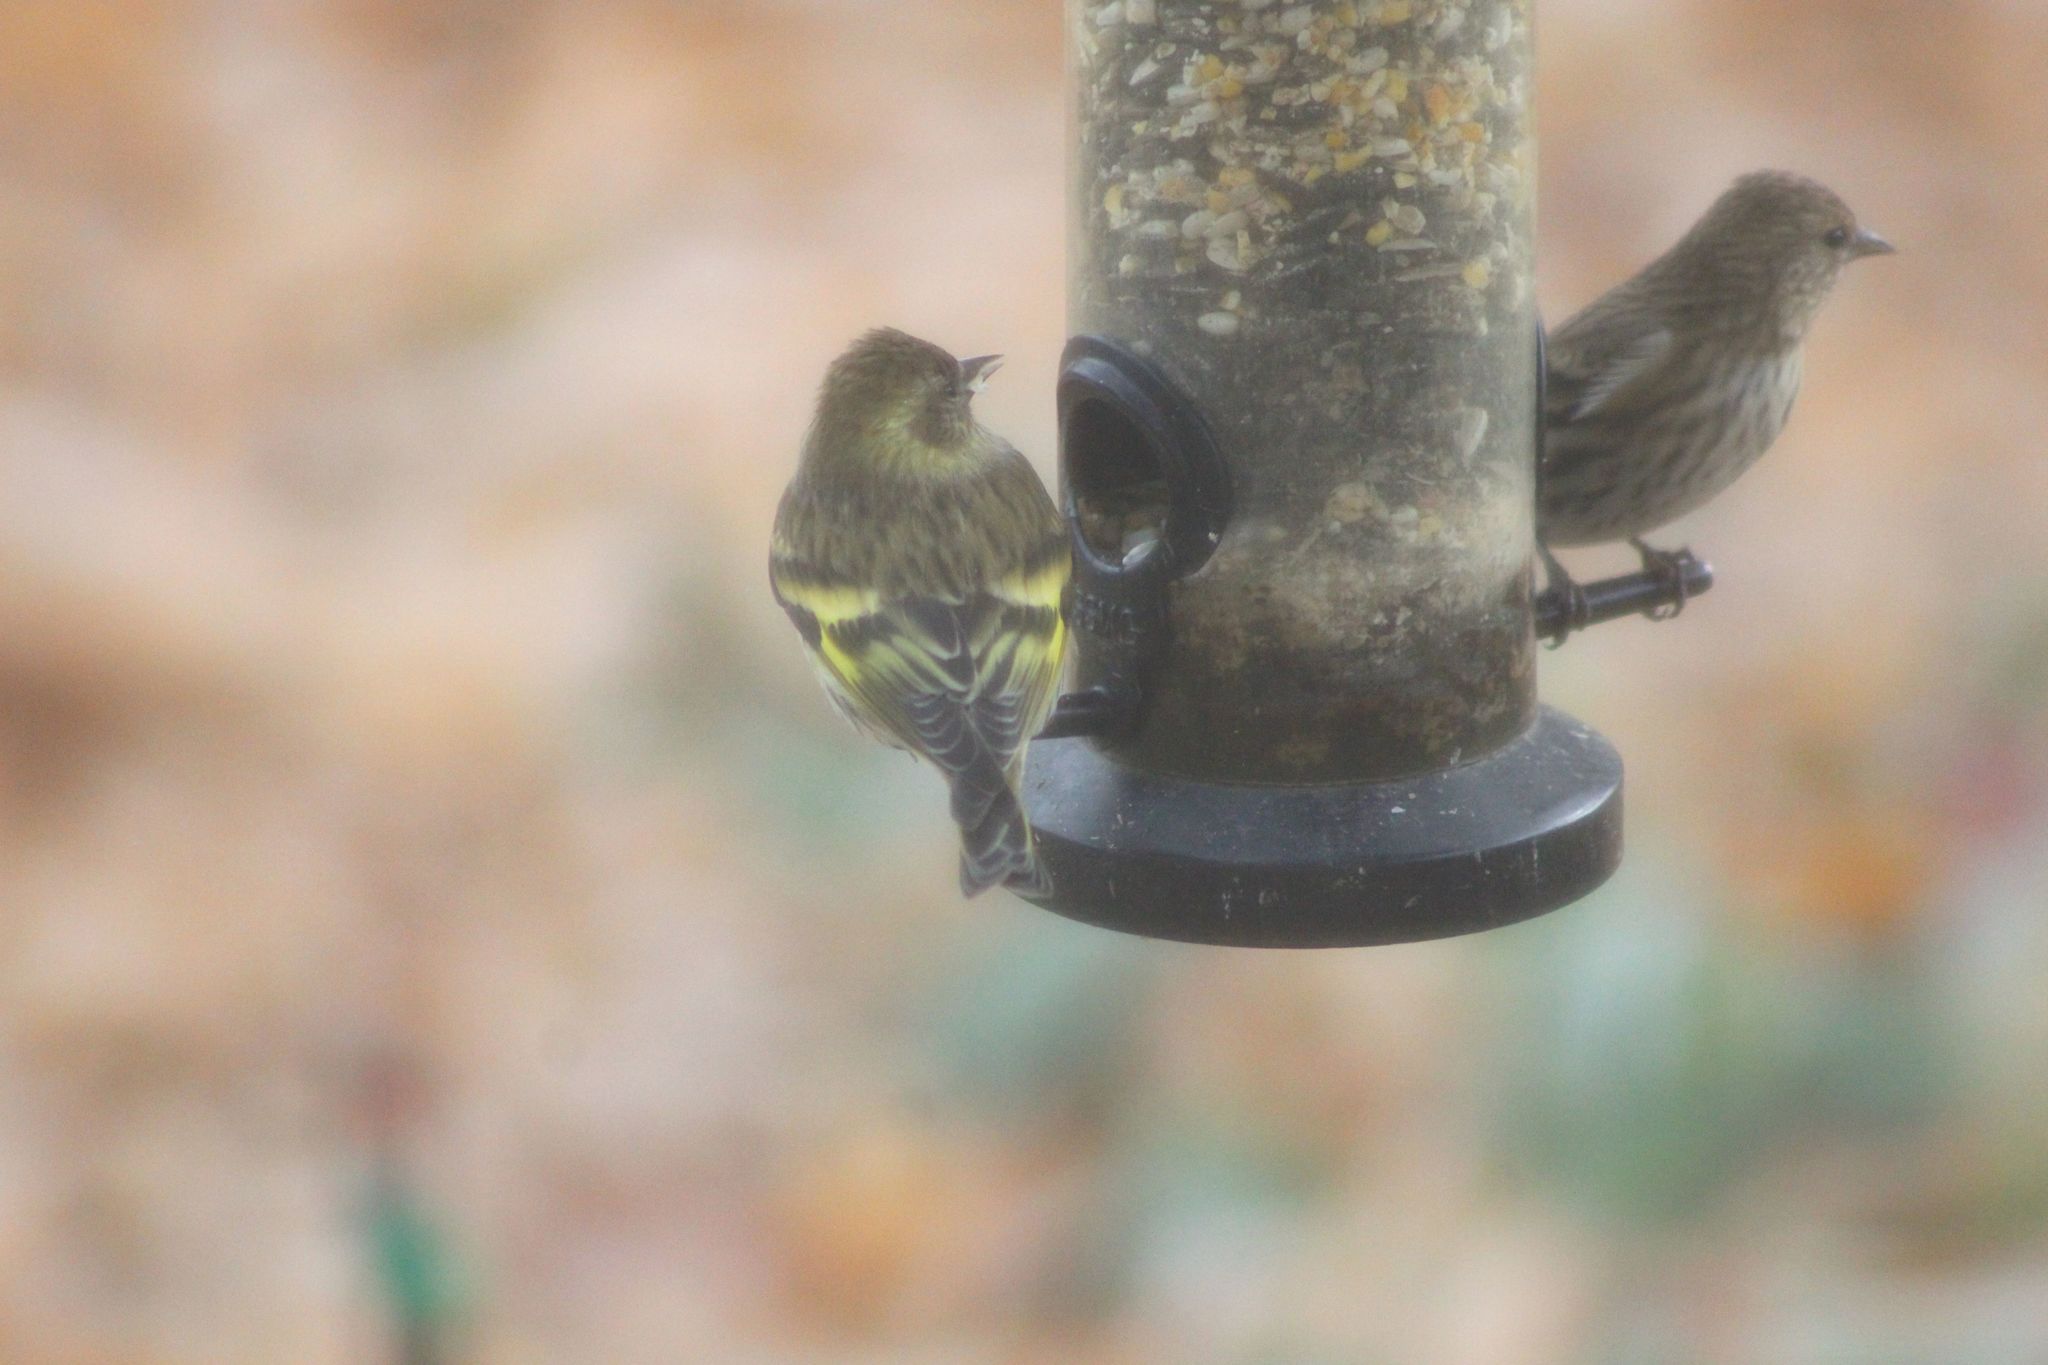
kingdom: Animalia
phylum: Chordata
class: Aves
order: Passeriformes
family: Fringillidae
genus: Spinus
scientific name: Spinus pinus
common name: Pine siskin
